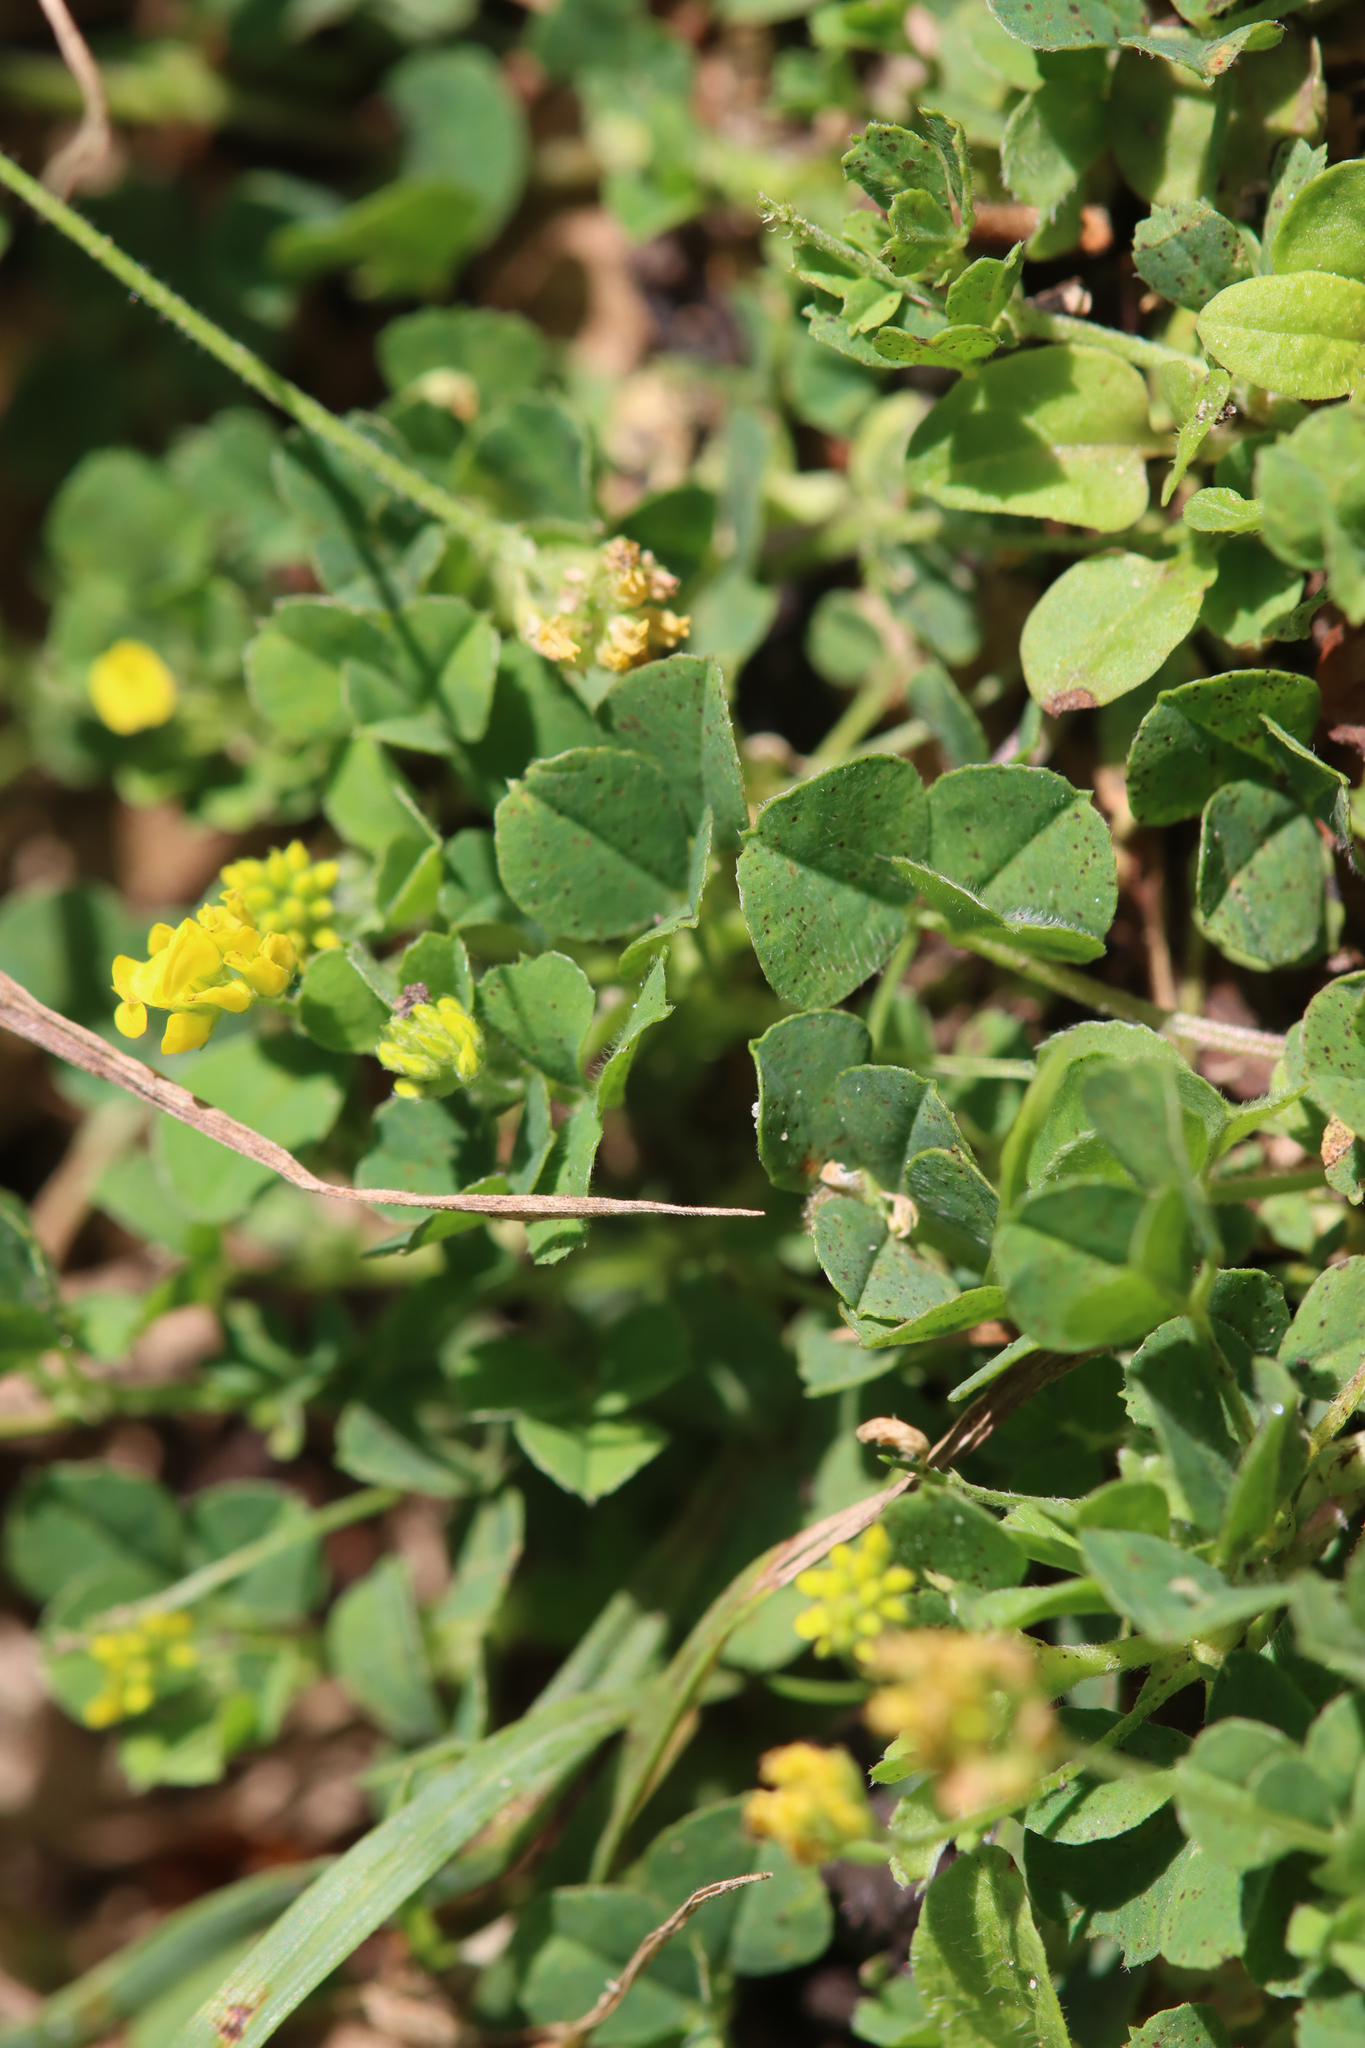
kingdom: Plantae
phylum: Tracheophyta
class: Magnoliopsida
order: Fabales
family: Fabaceae
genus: Medicago
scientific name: Medicago lupulina
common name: Black medick
